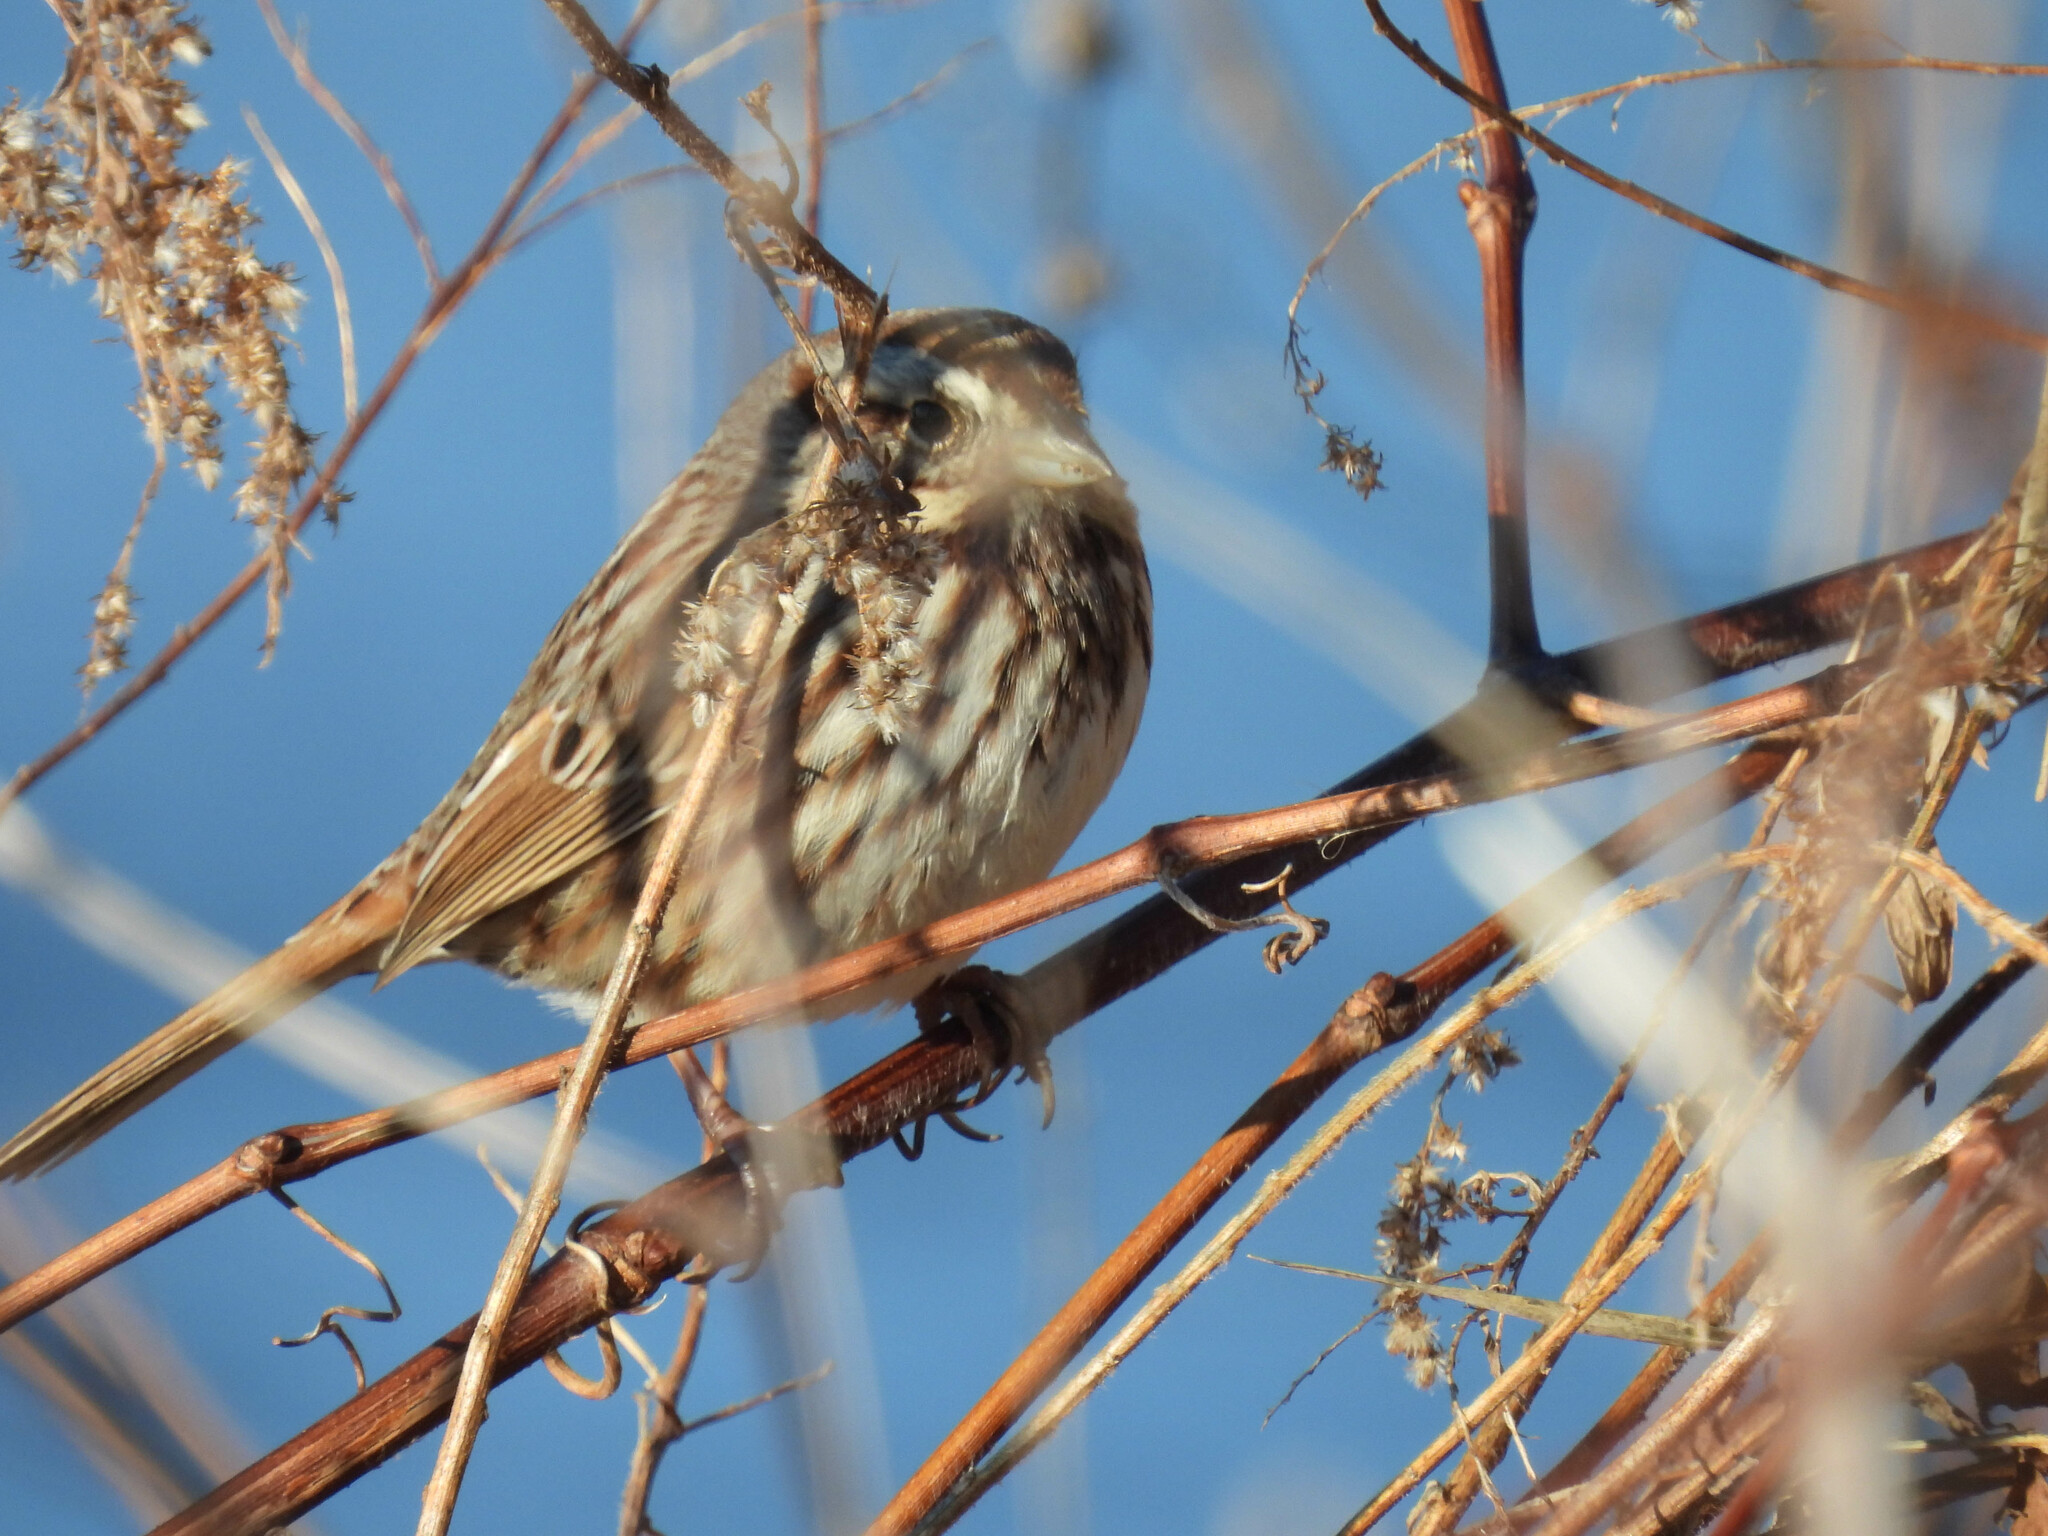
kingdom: Animalia
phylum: Chordata
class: Aves
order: Passeriformes
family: Passerellidae
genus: Melospiza
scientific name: Melospiza melodia
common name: Song sparrow
